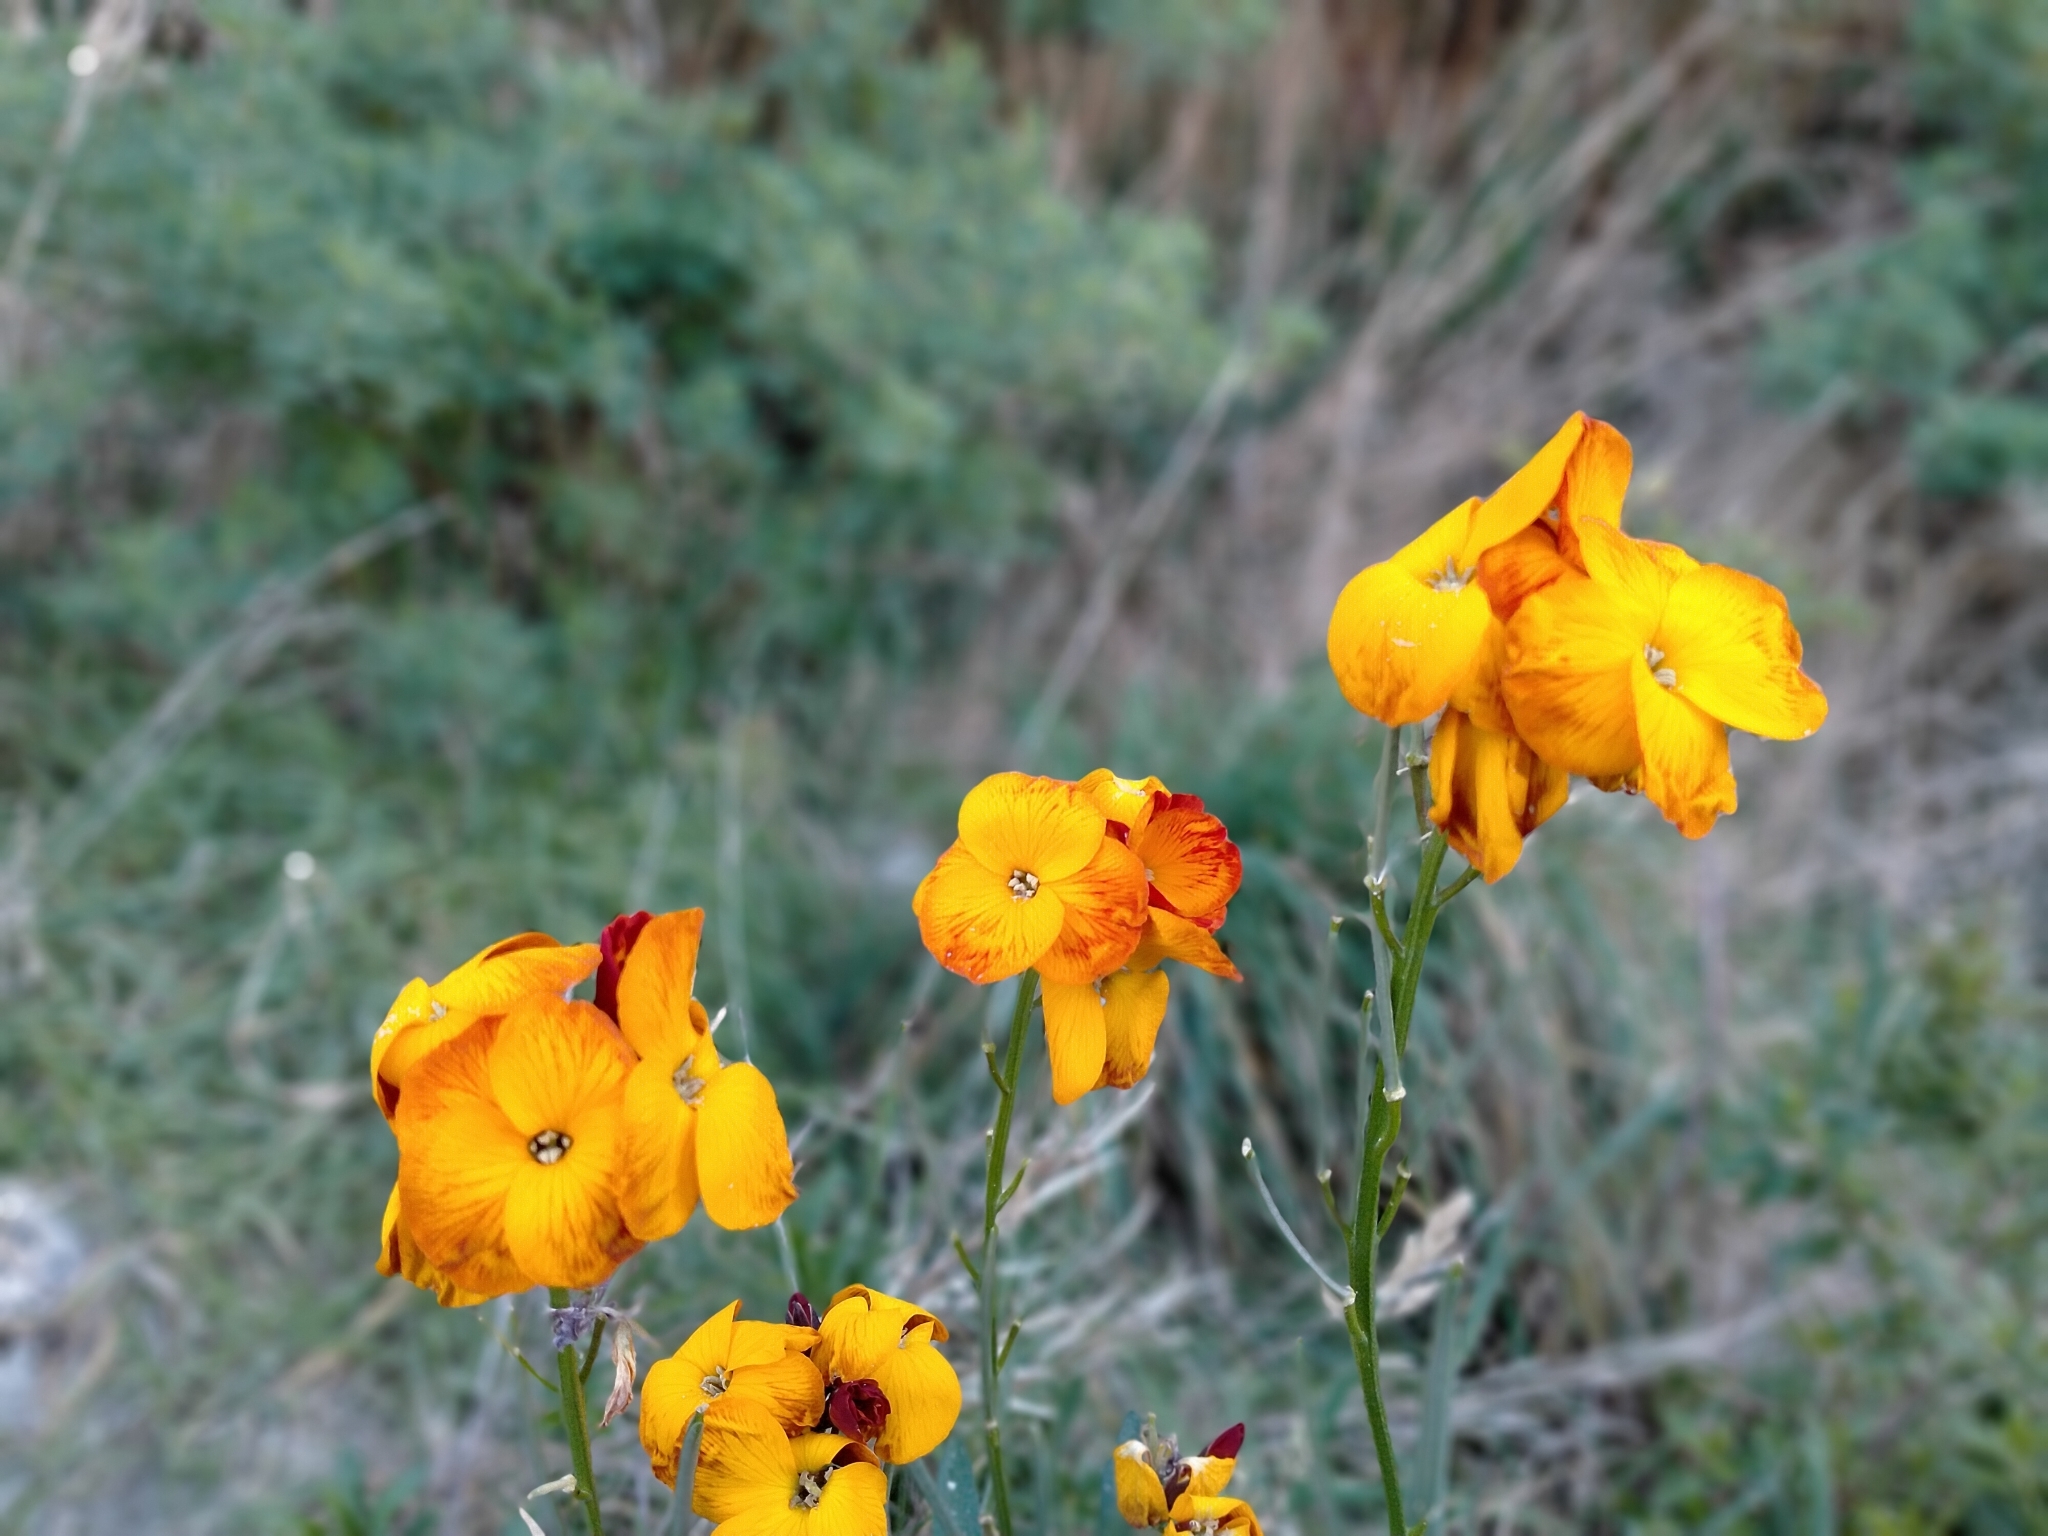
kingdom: Plantae
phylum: Tracheophyta
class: Magnoliopsida
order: Brassicales
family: Brassicaceae
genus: Erysimum
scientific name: Erysimum cheiri
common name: Wallflower
